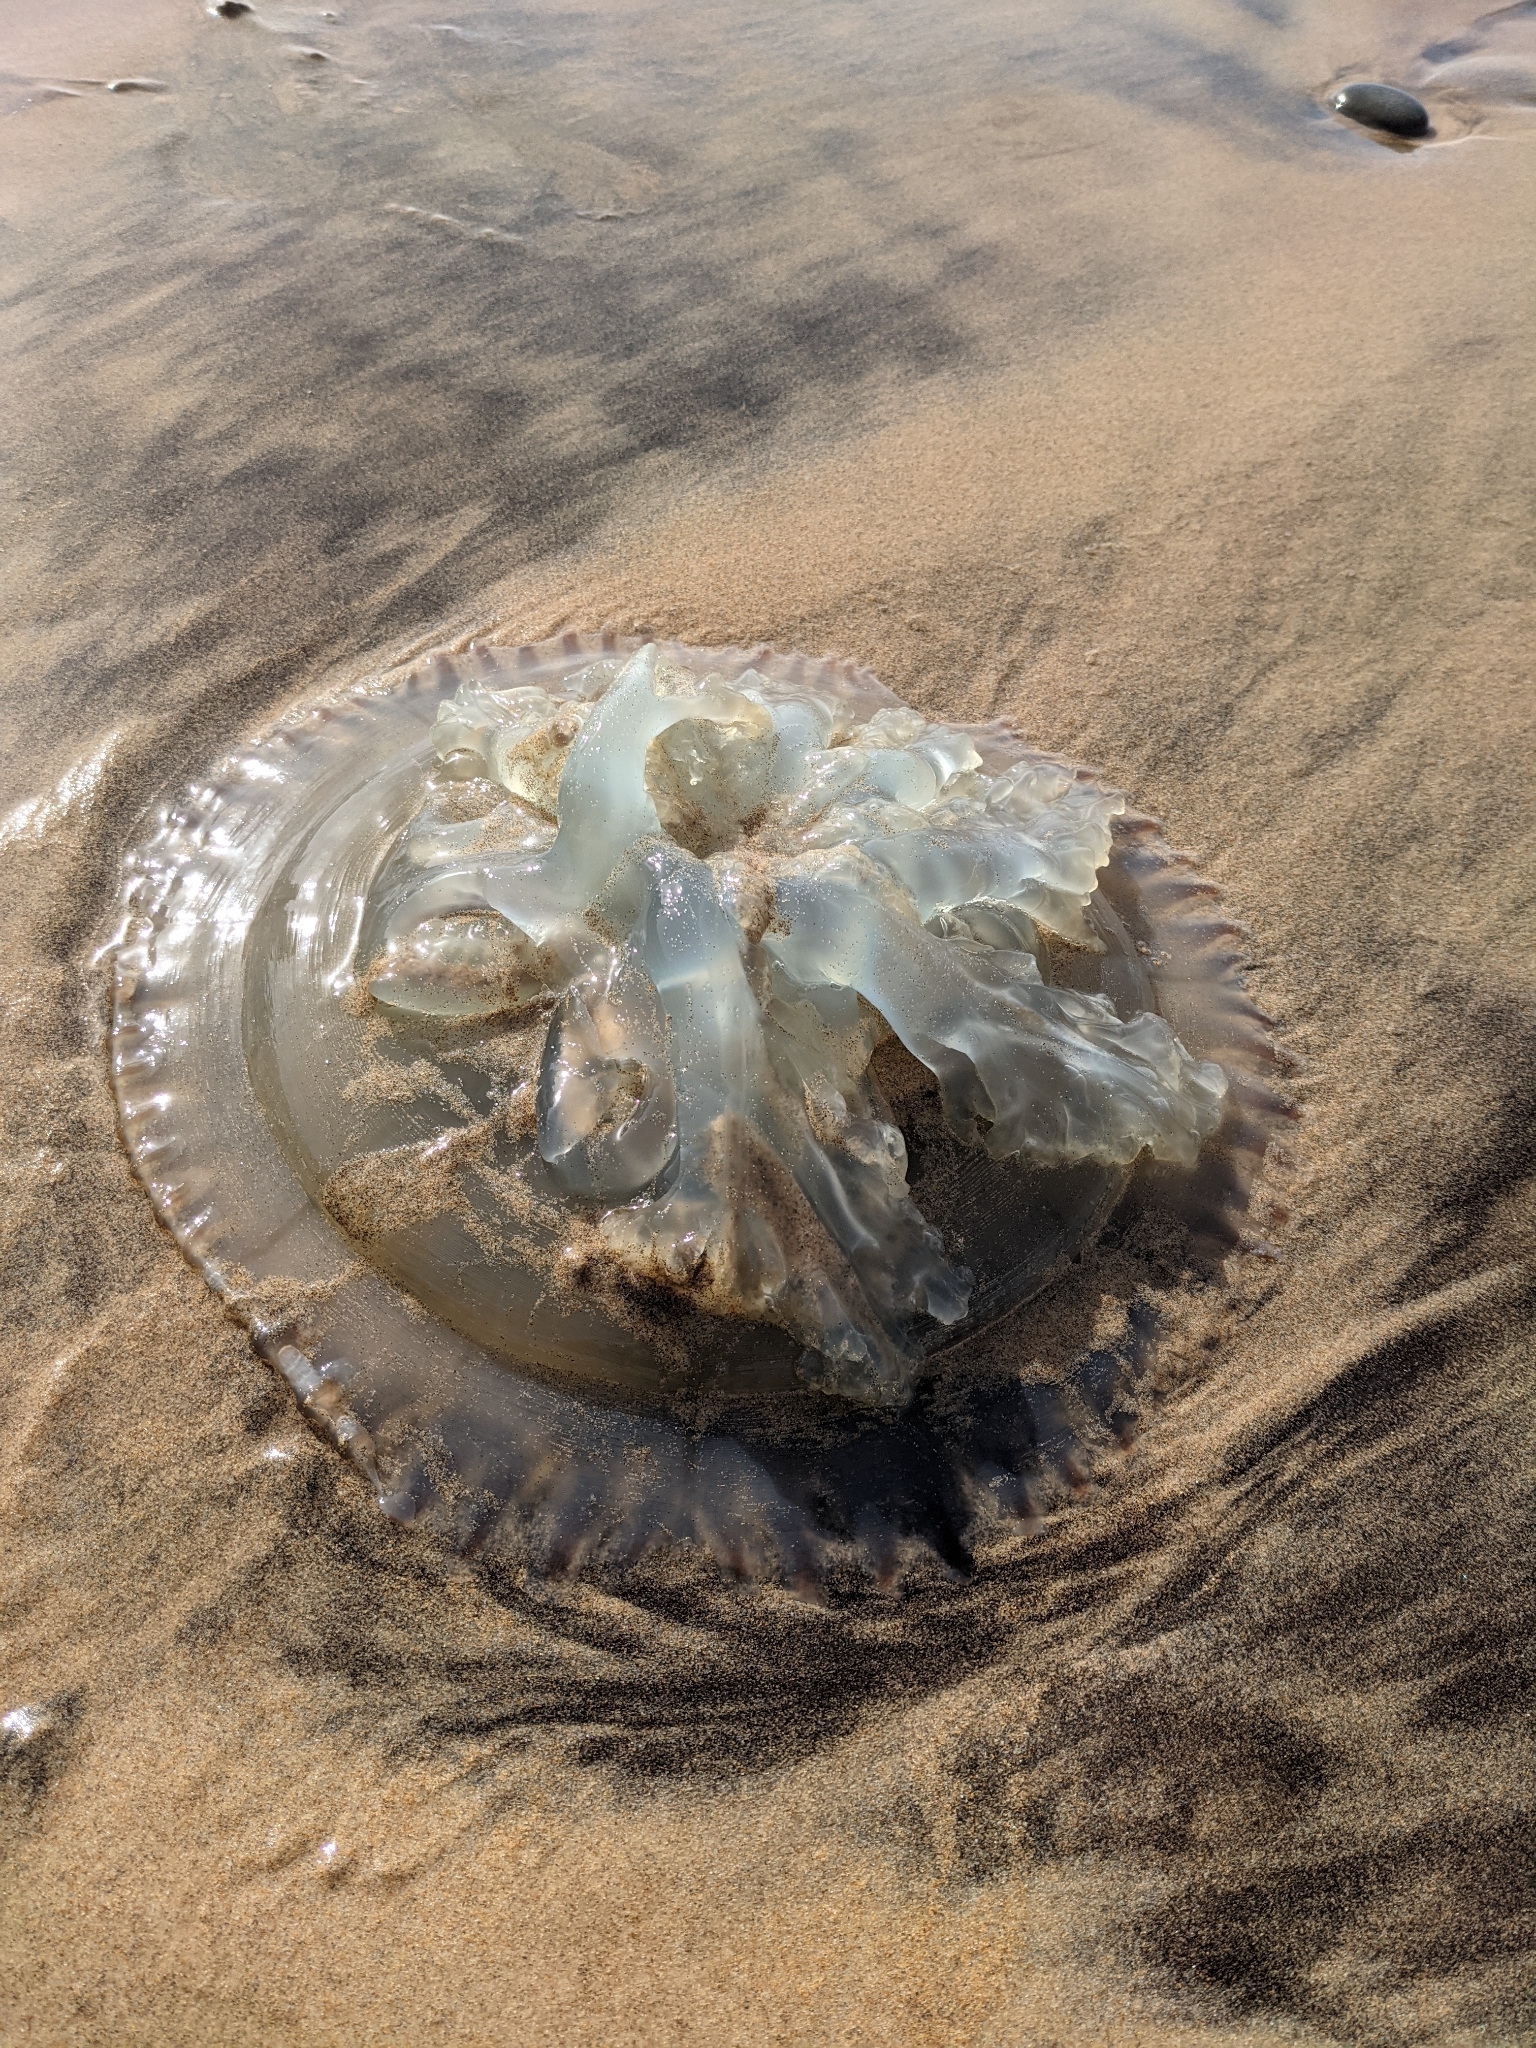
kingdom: Animalia
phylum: Cnidaria
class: Scyphozoa
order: Rhizostomeae
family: Catostylidae
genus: Catostylus
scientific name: Catostylus tagi
